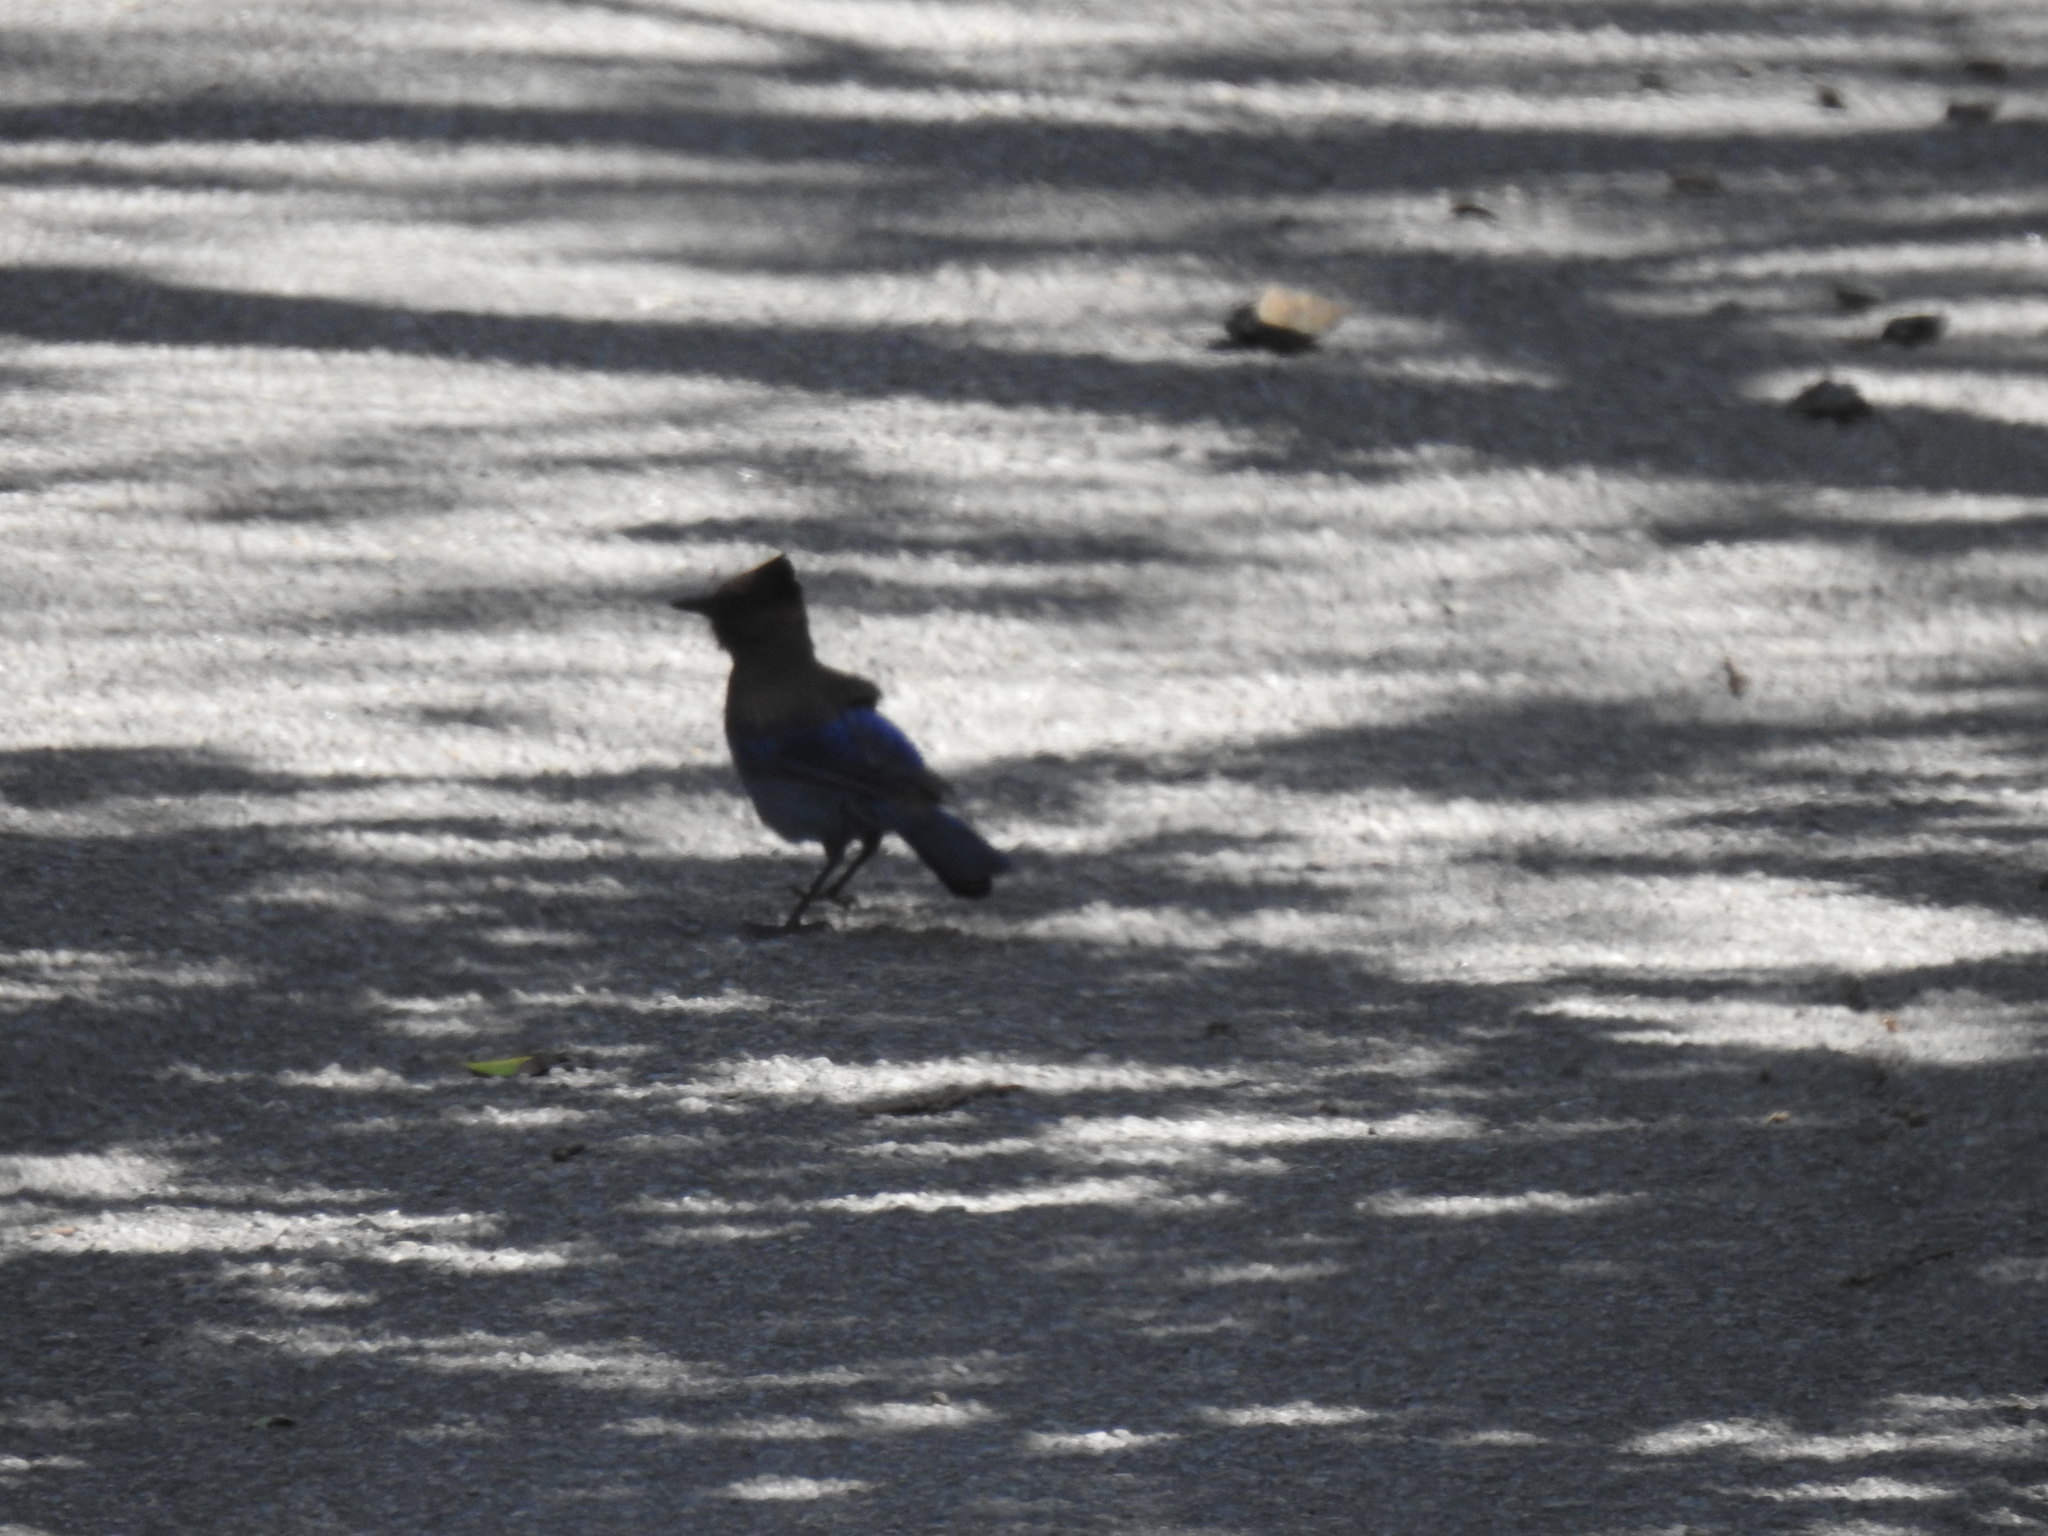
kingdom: Animalia
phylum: Chordata
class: Aves
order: Passeriformes
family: Corvidae
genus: Cyanocitta
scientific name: Cyanocitta stelleri
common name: Steller's jay
